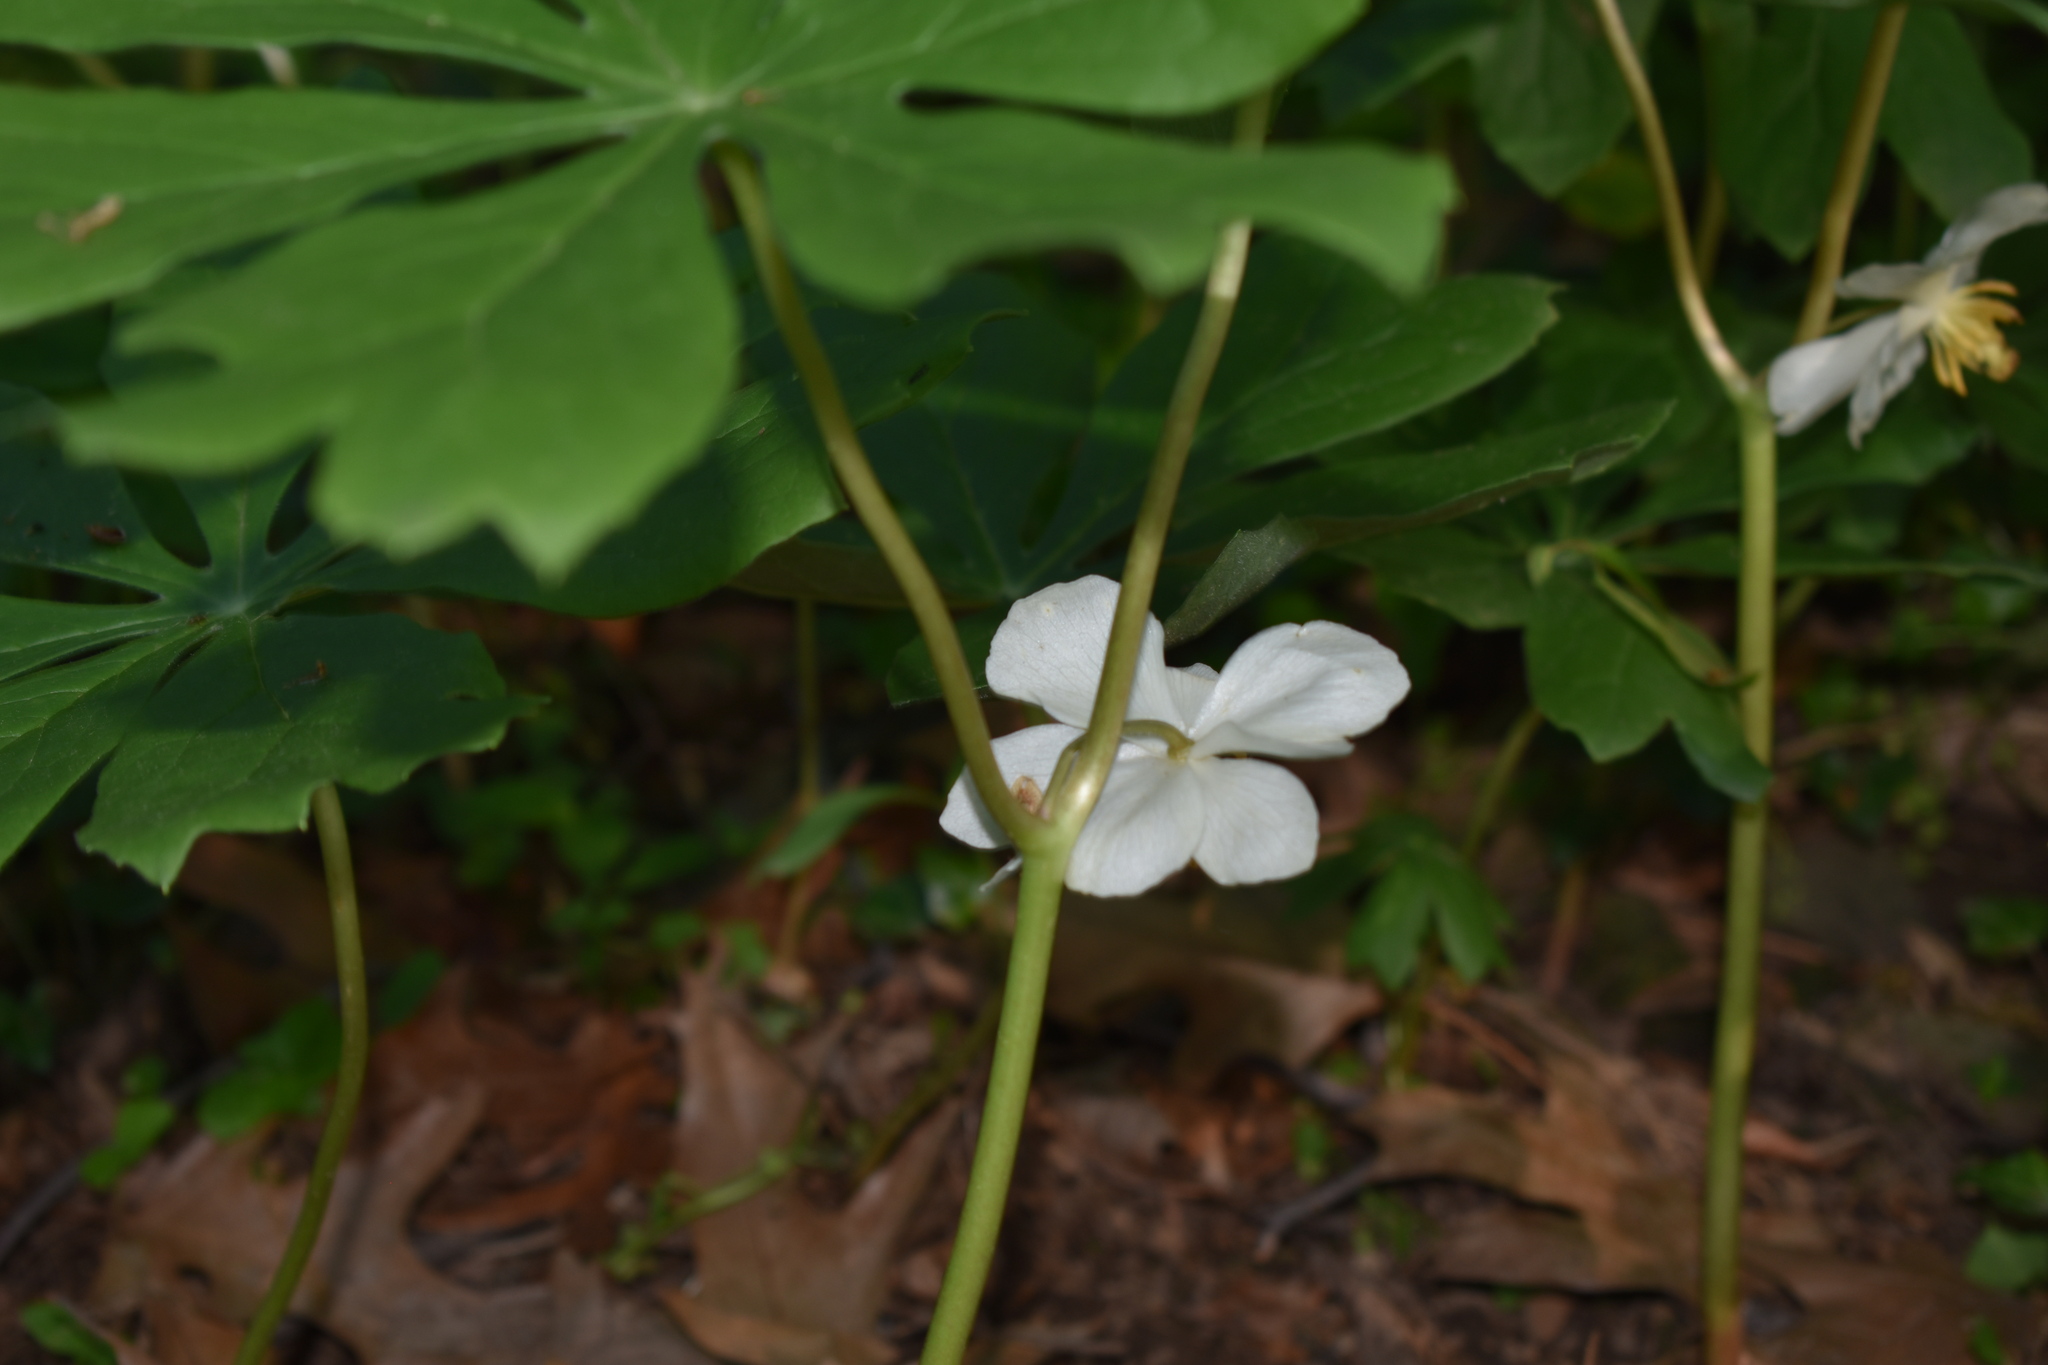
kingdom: Plantae
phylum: Tracheophyta
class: Magnoliopsida
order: Ranunculales
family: Berberidaceae
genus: Podophyllum
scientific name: Podophyllum peltatum
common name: Wild mandrake
